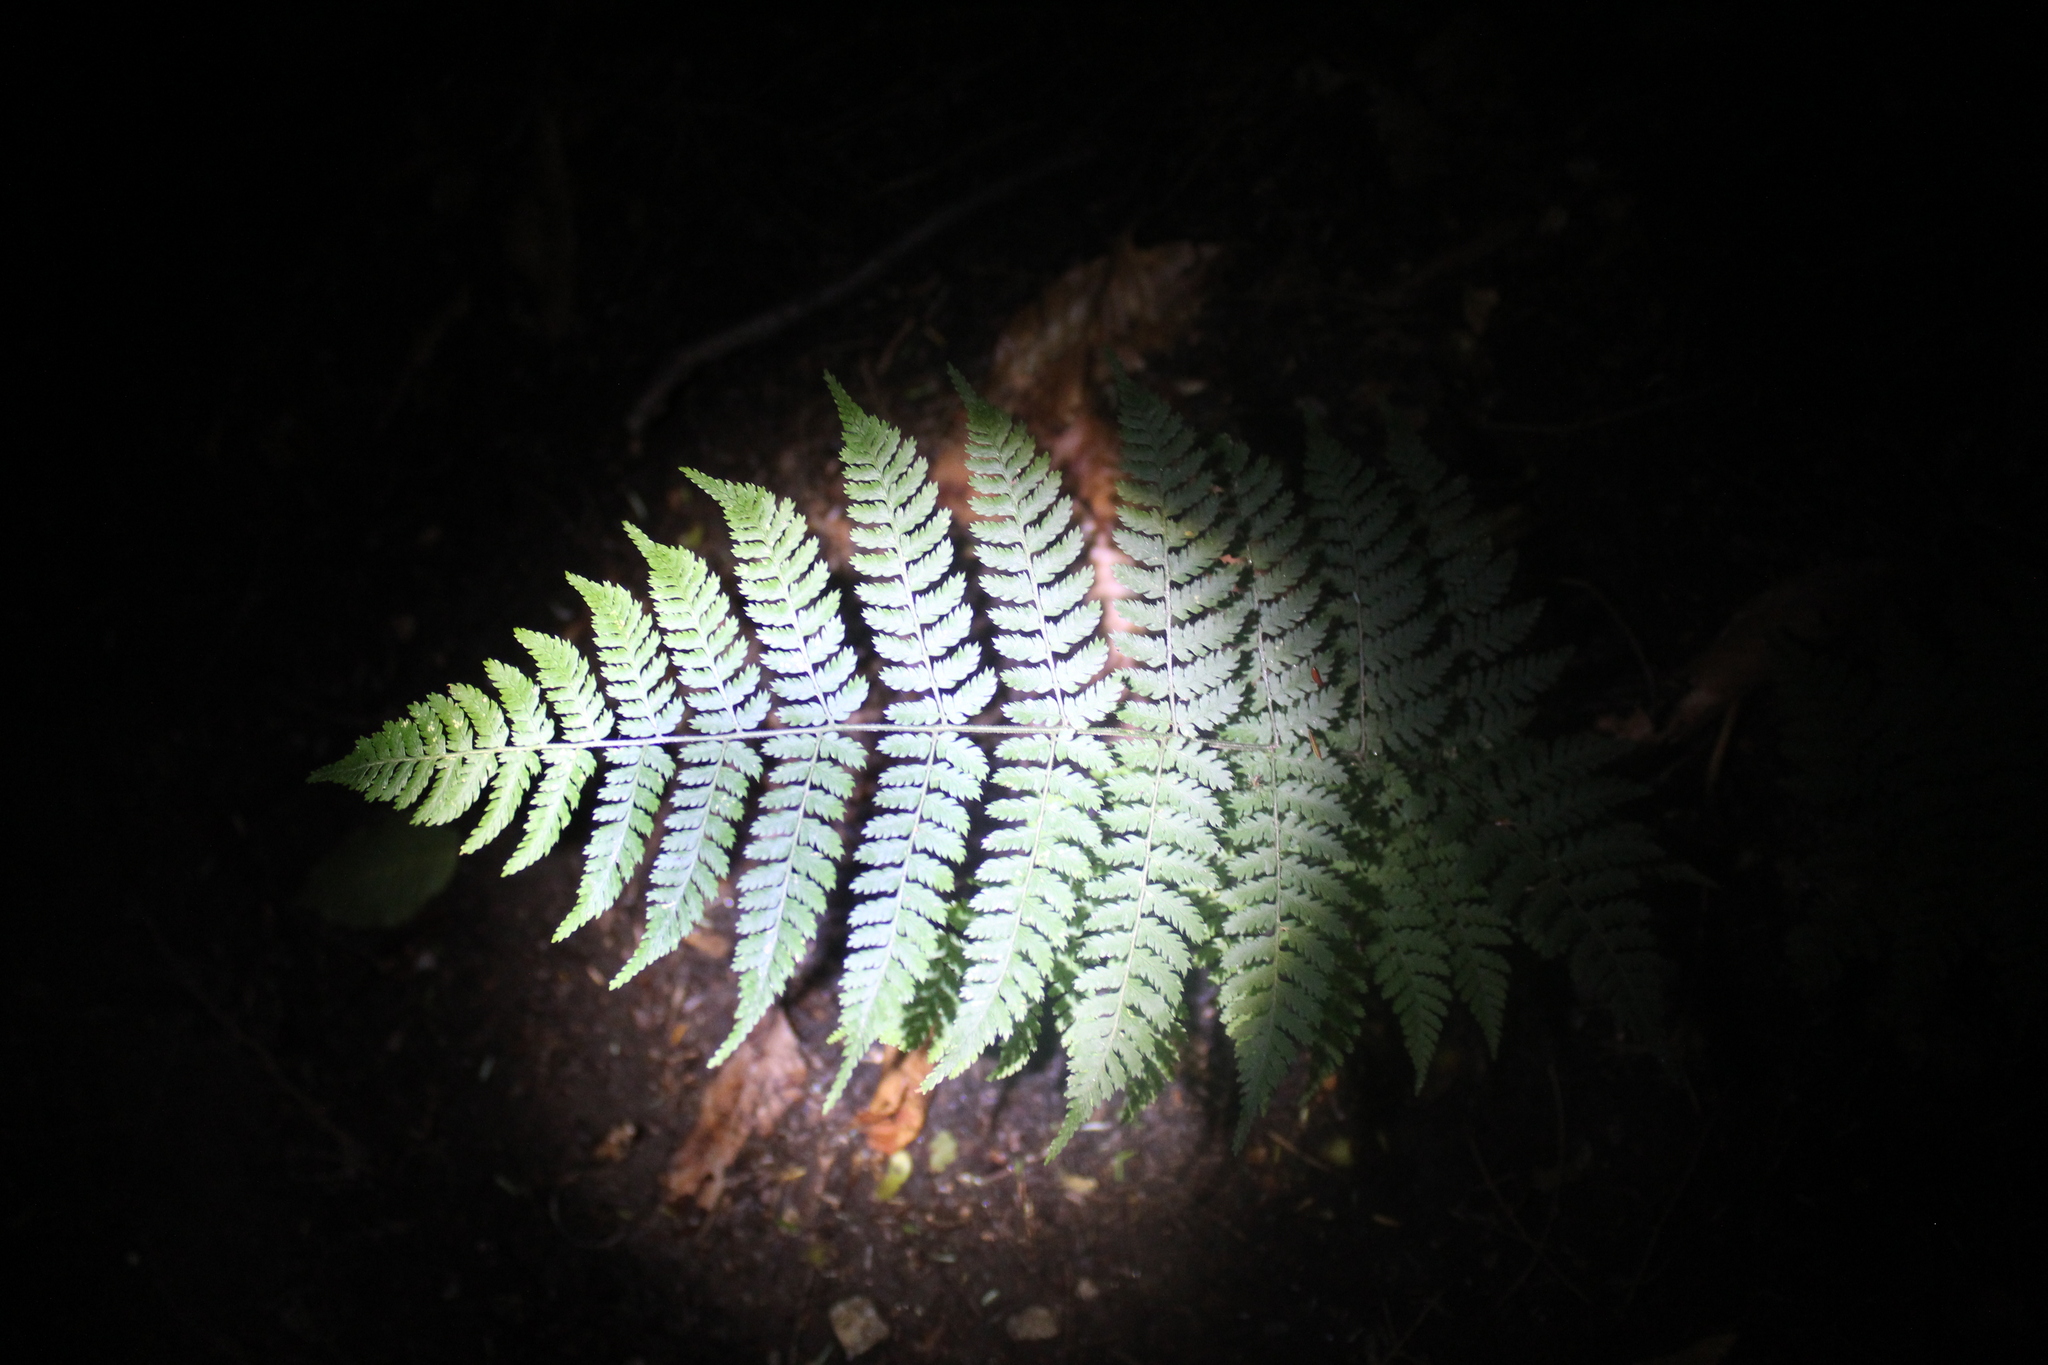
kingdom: Plantae
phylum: Tracheophyta
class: Polypodiopsida
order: Polypodiales
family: Dryopteridaceae
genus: Dryopteris
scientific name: Dryopteris intermedia
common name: Evergreen wood fern
